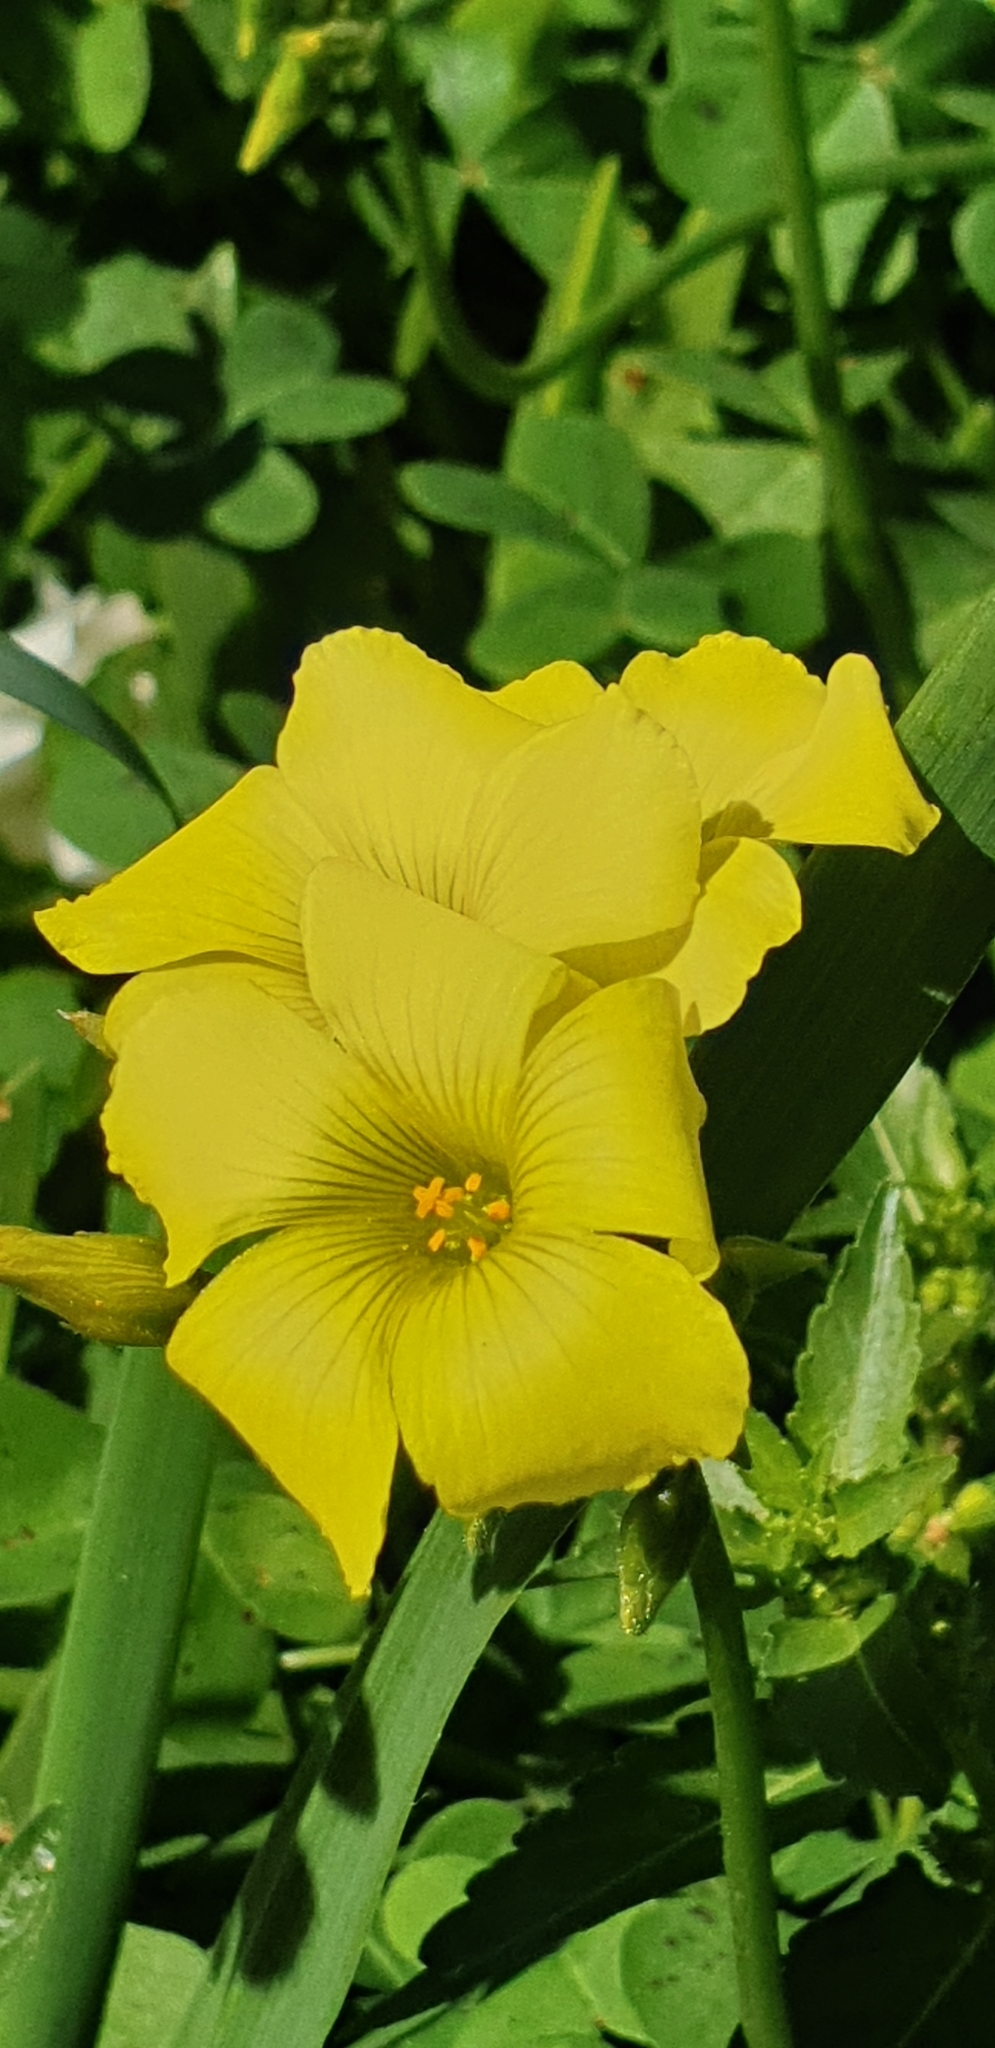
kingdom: Plantae
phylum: Tracheophyta
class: Magnoliopsida
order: Oxalidales
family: Oxalidaceae
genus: Oxalis
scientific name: Oxalis pes-caprae
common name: Bermuda-buttercup
